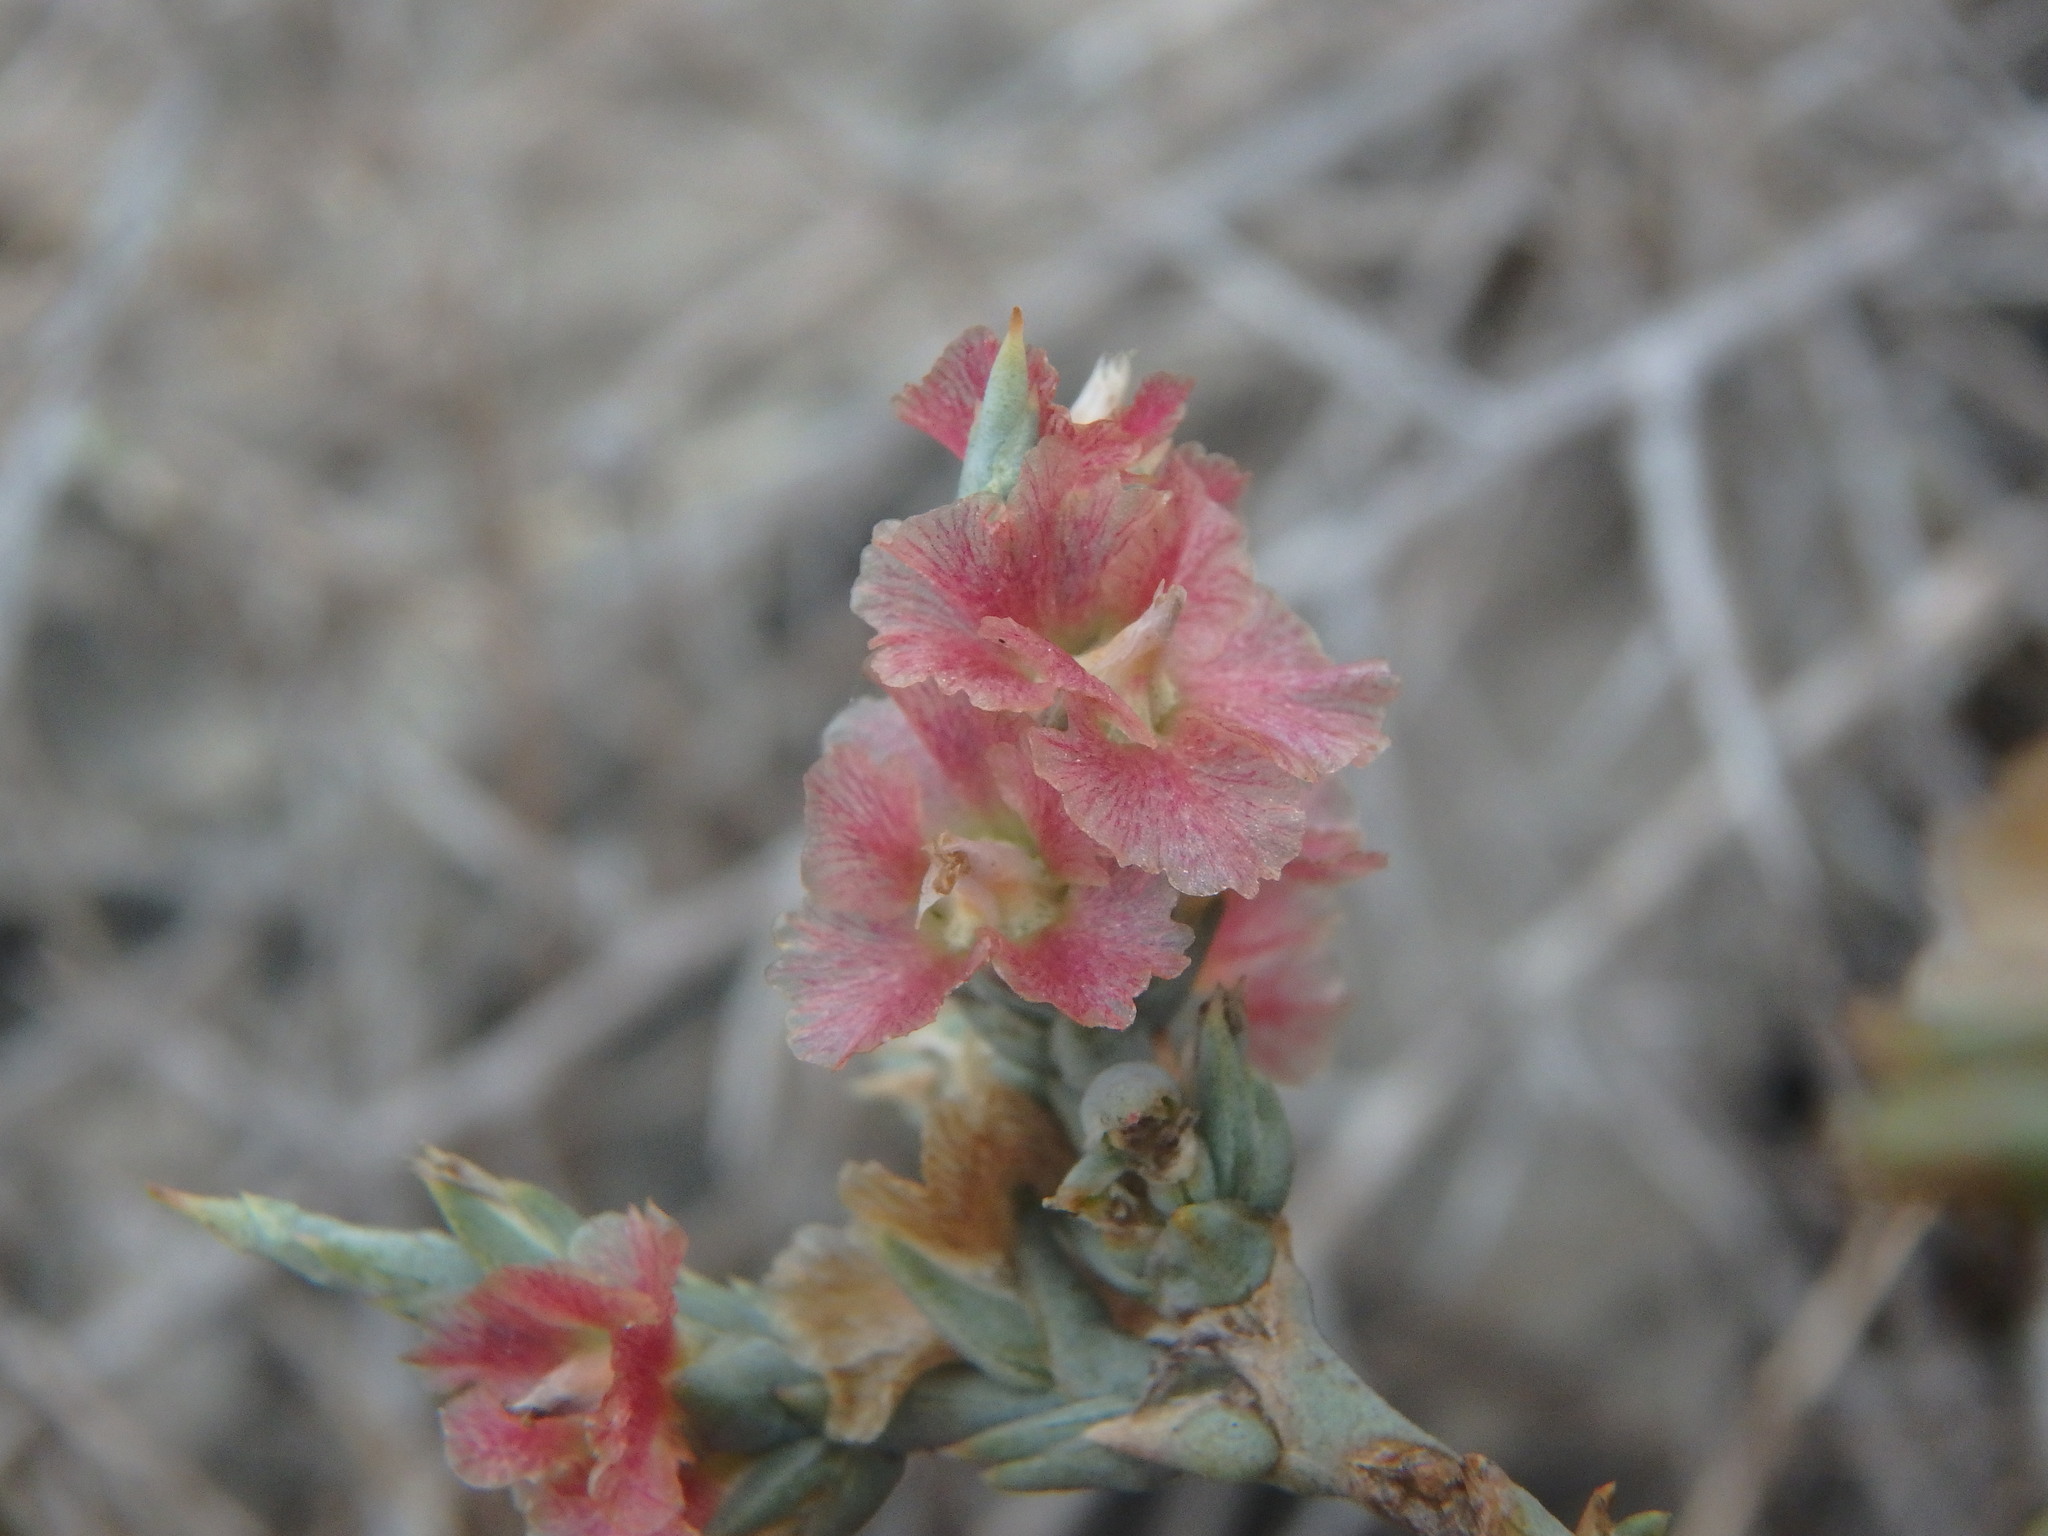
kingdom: Plantae
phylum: Tracheophyta
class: Magnoliopsida
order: Caryophyllales
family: Amaranthaceae
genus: Noaea
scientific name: Noaea mucronata
